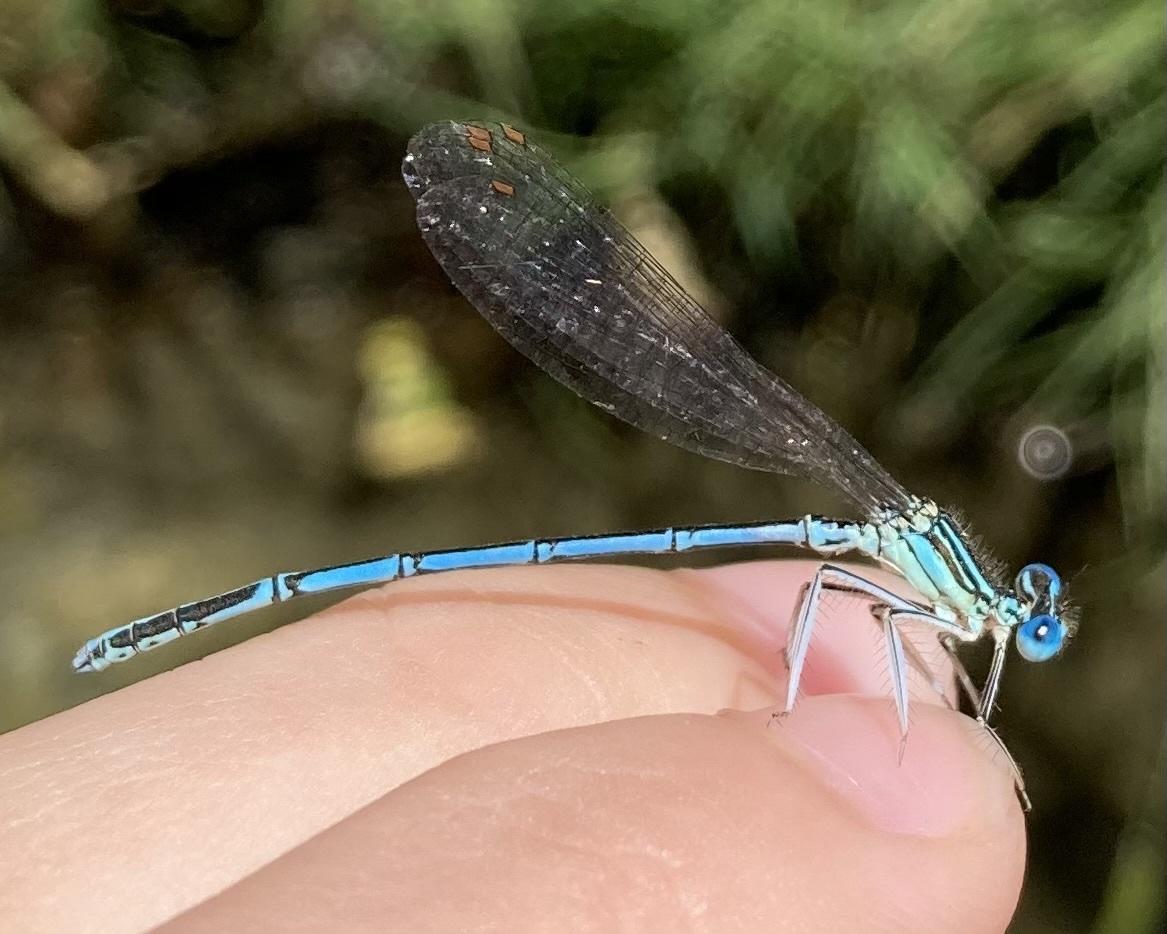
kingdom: Animalia
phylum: Arthropoda
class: Insecta
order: Odonata
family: Platycnemididae
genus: Platycnemis
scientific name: Platycnemis pennipes
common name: White-legged damselfly
